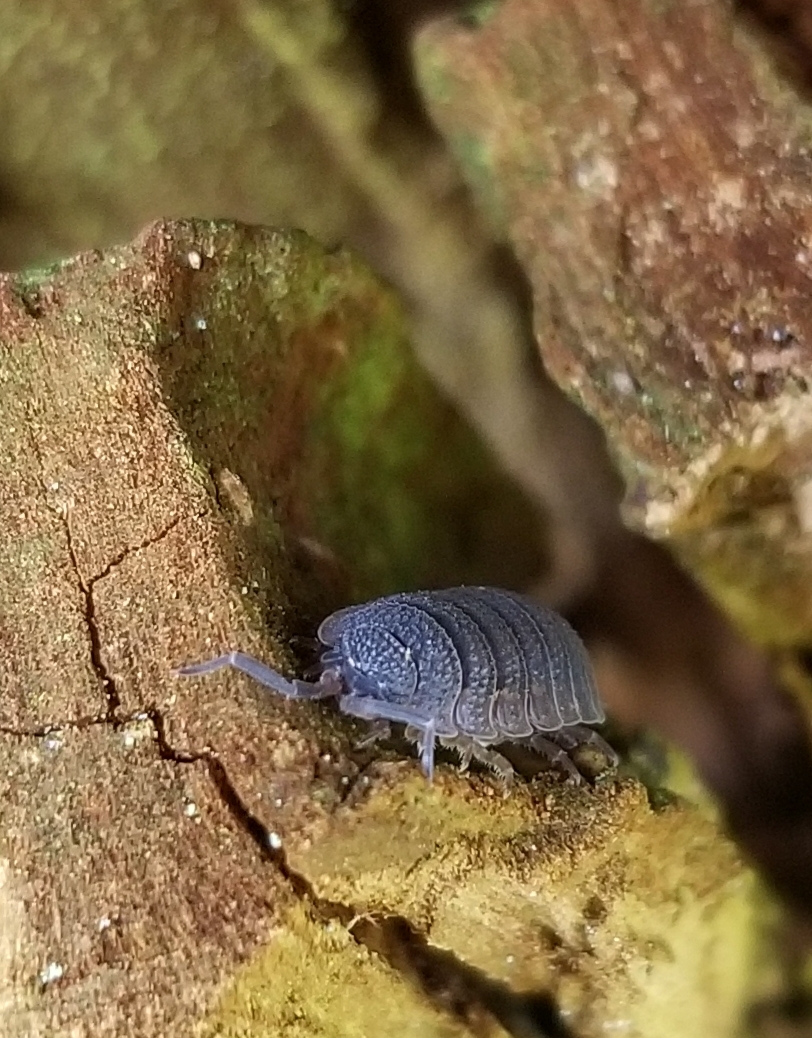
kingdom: Animalia
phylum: Arthropoda
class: Malacostraca
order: Isopoda
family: Porcellionidae
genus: Porcellio
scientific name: Porcellio scaber
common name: Common rough woodlouse
